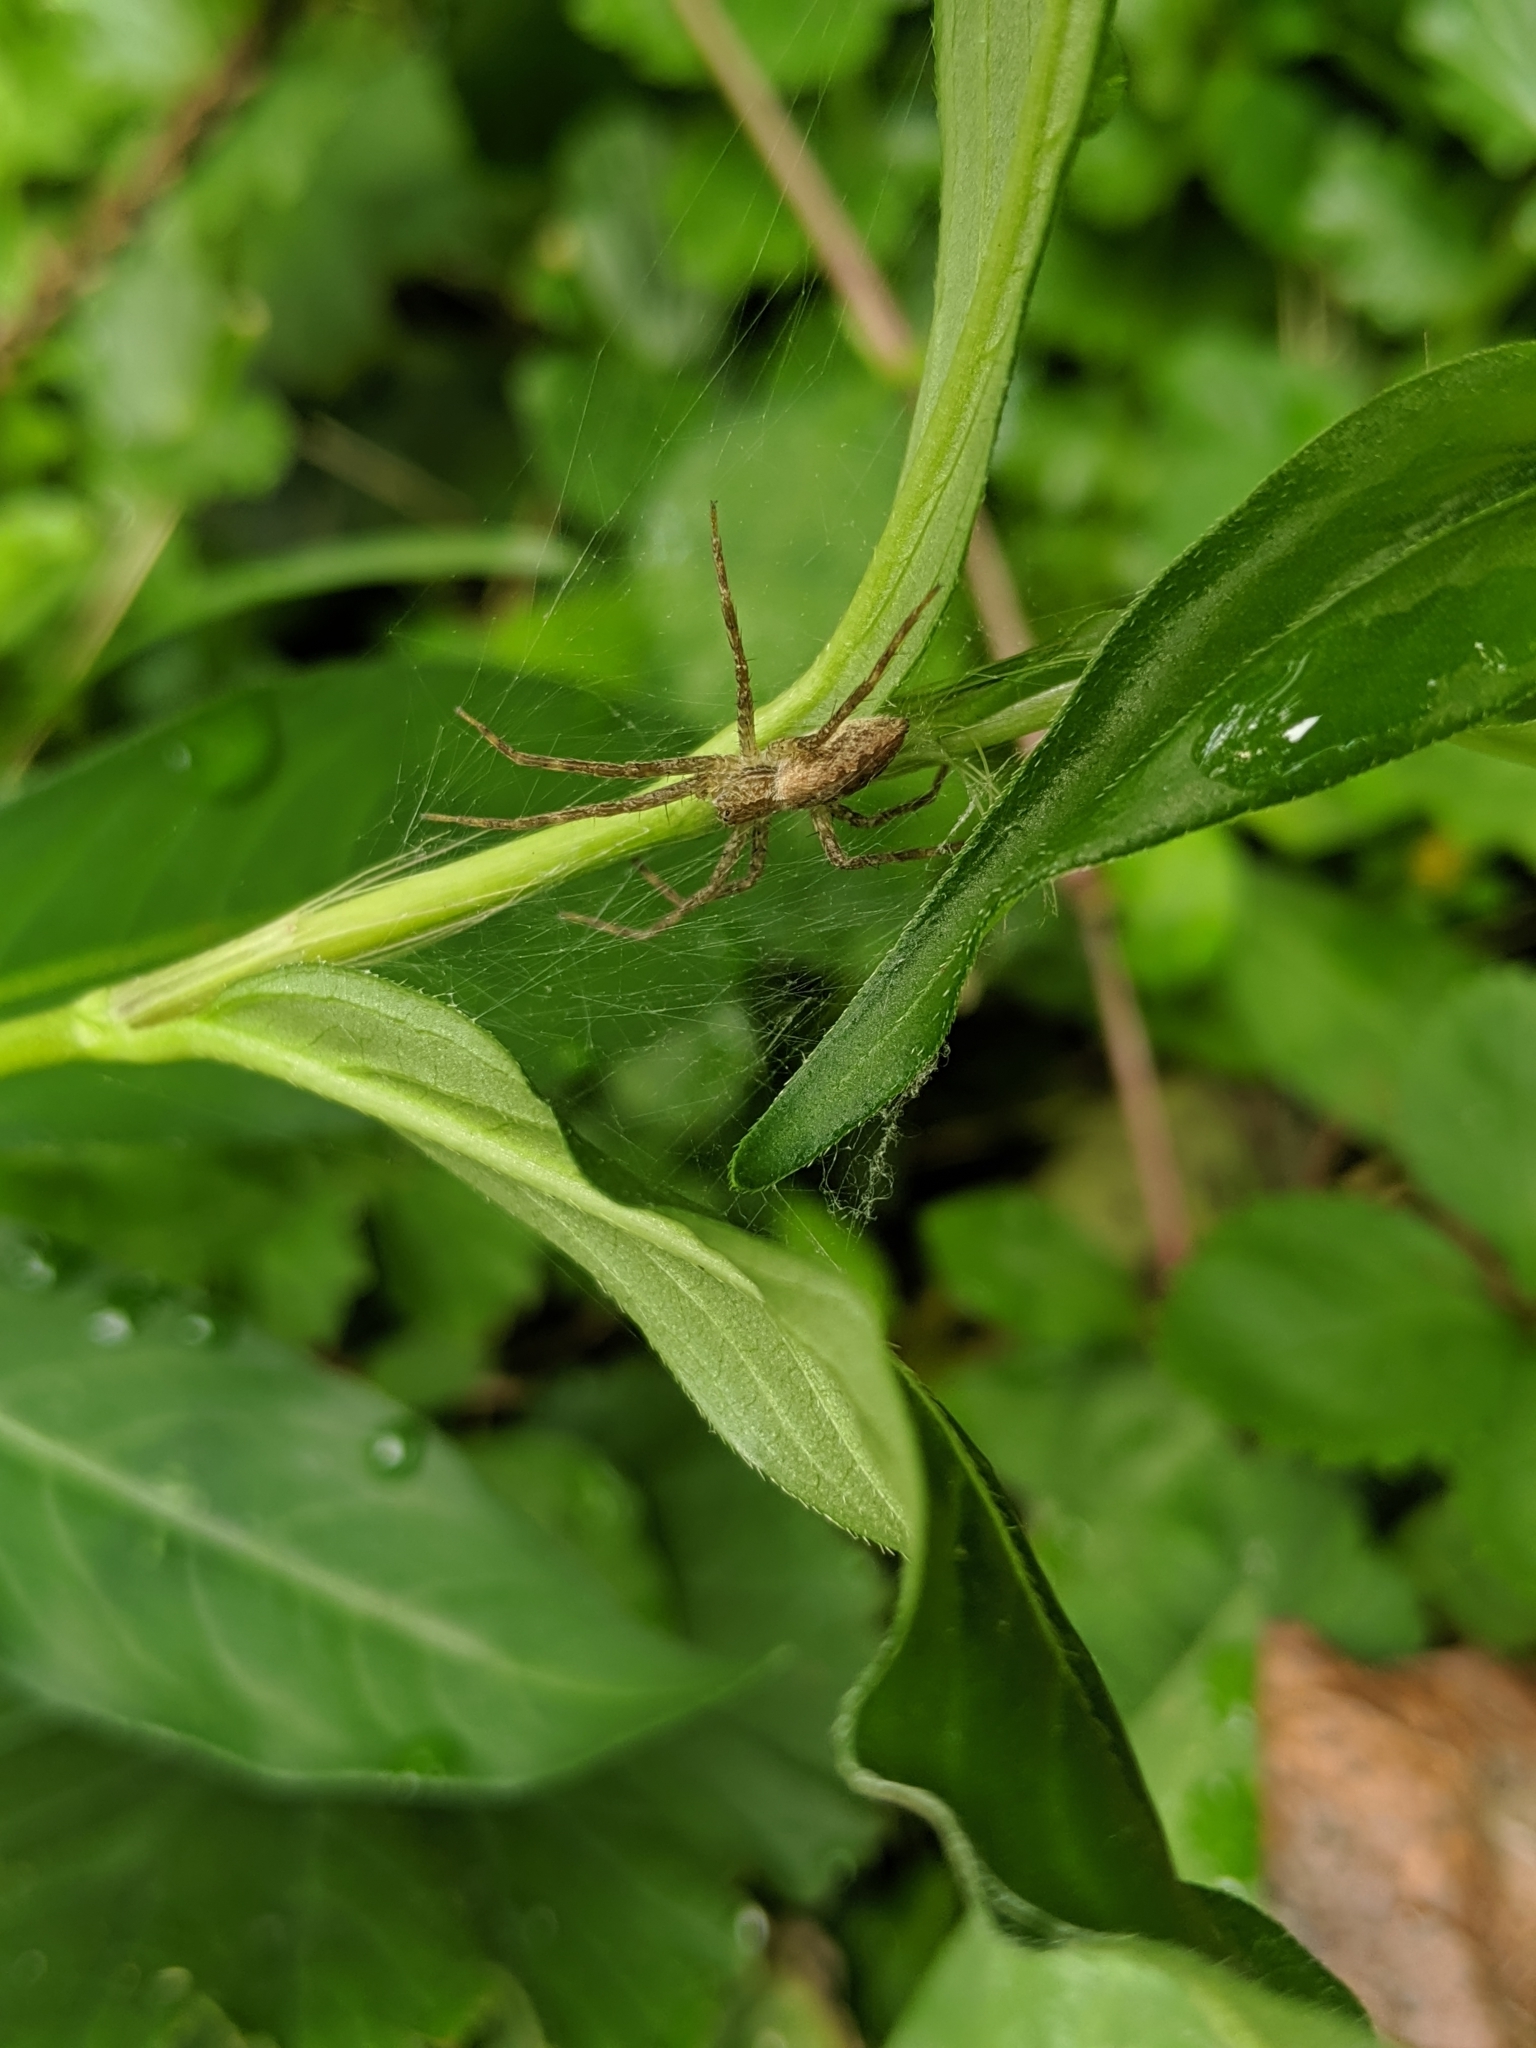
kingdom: Animalia
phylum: Arthropoda
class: Arachnida
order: Araneae
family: Pisauridae
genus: Pisaurina
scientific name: Pisaurina mira
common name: American nursery web spider
